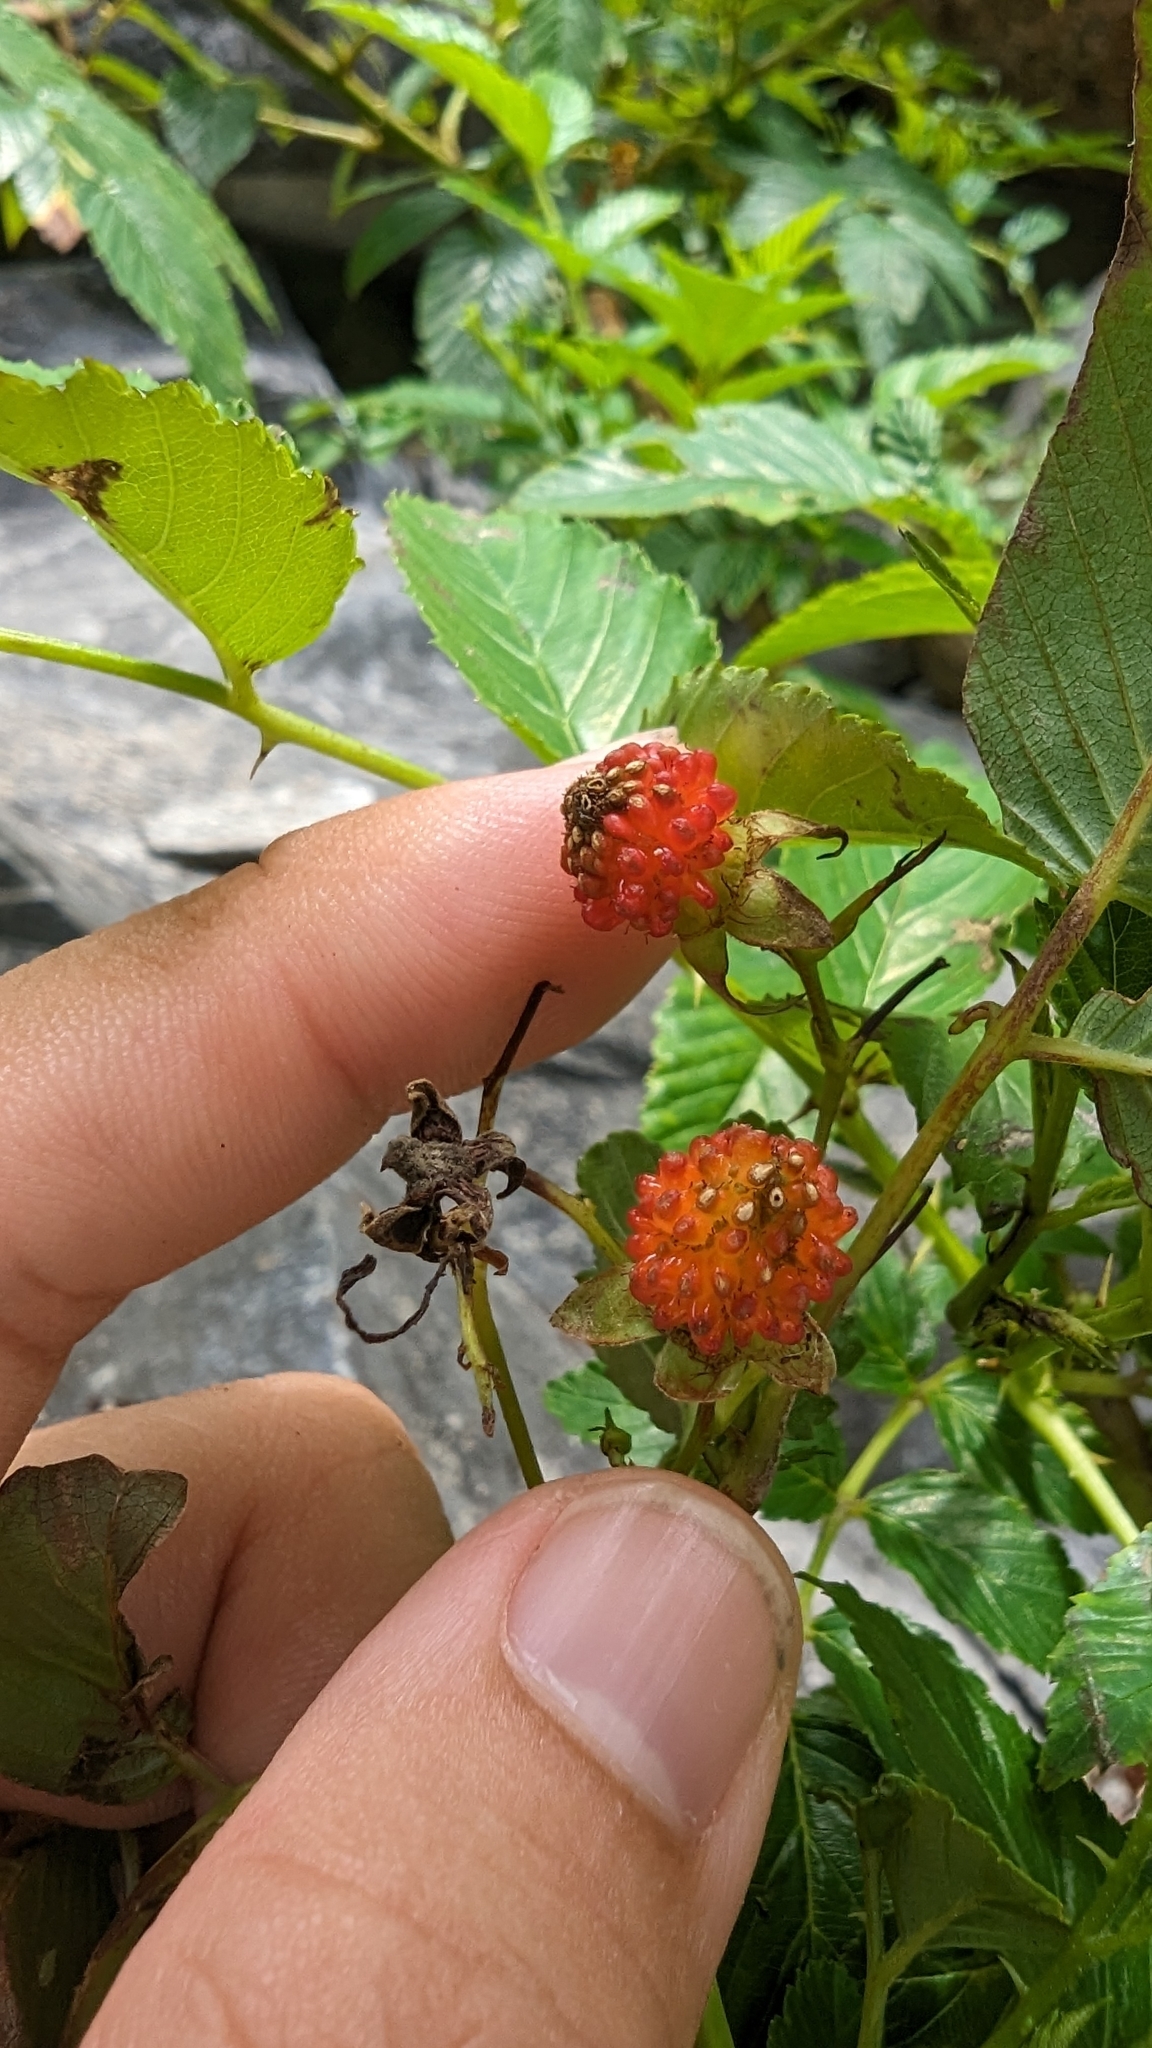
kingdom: Plantae
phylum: Tracheophyta
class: Magnoliopsida
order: Rosales
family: Rosaceae
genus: Rubus
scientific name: Rubus fraxinifolius
